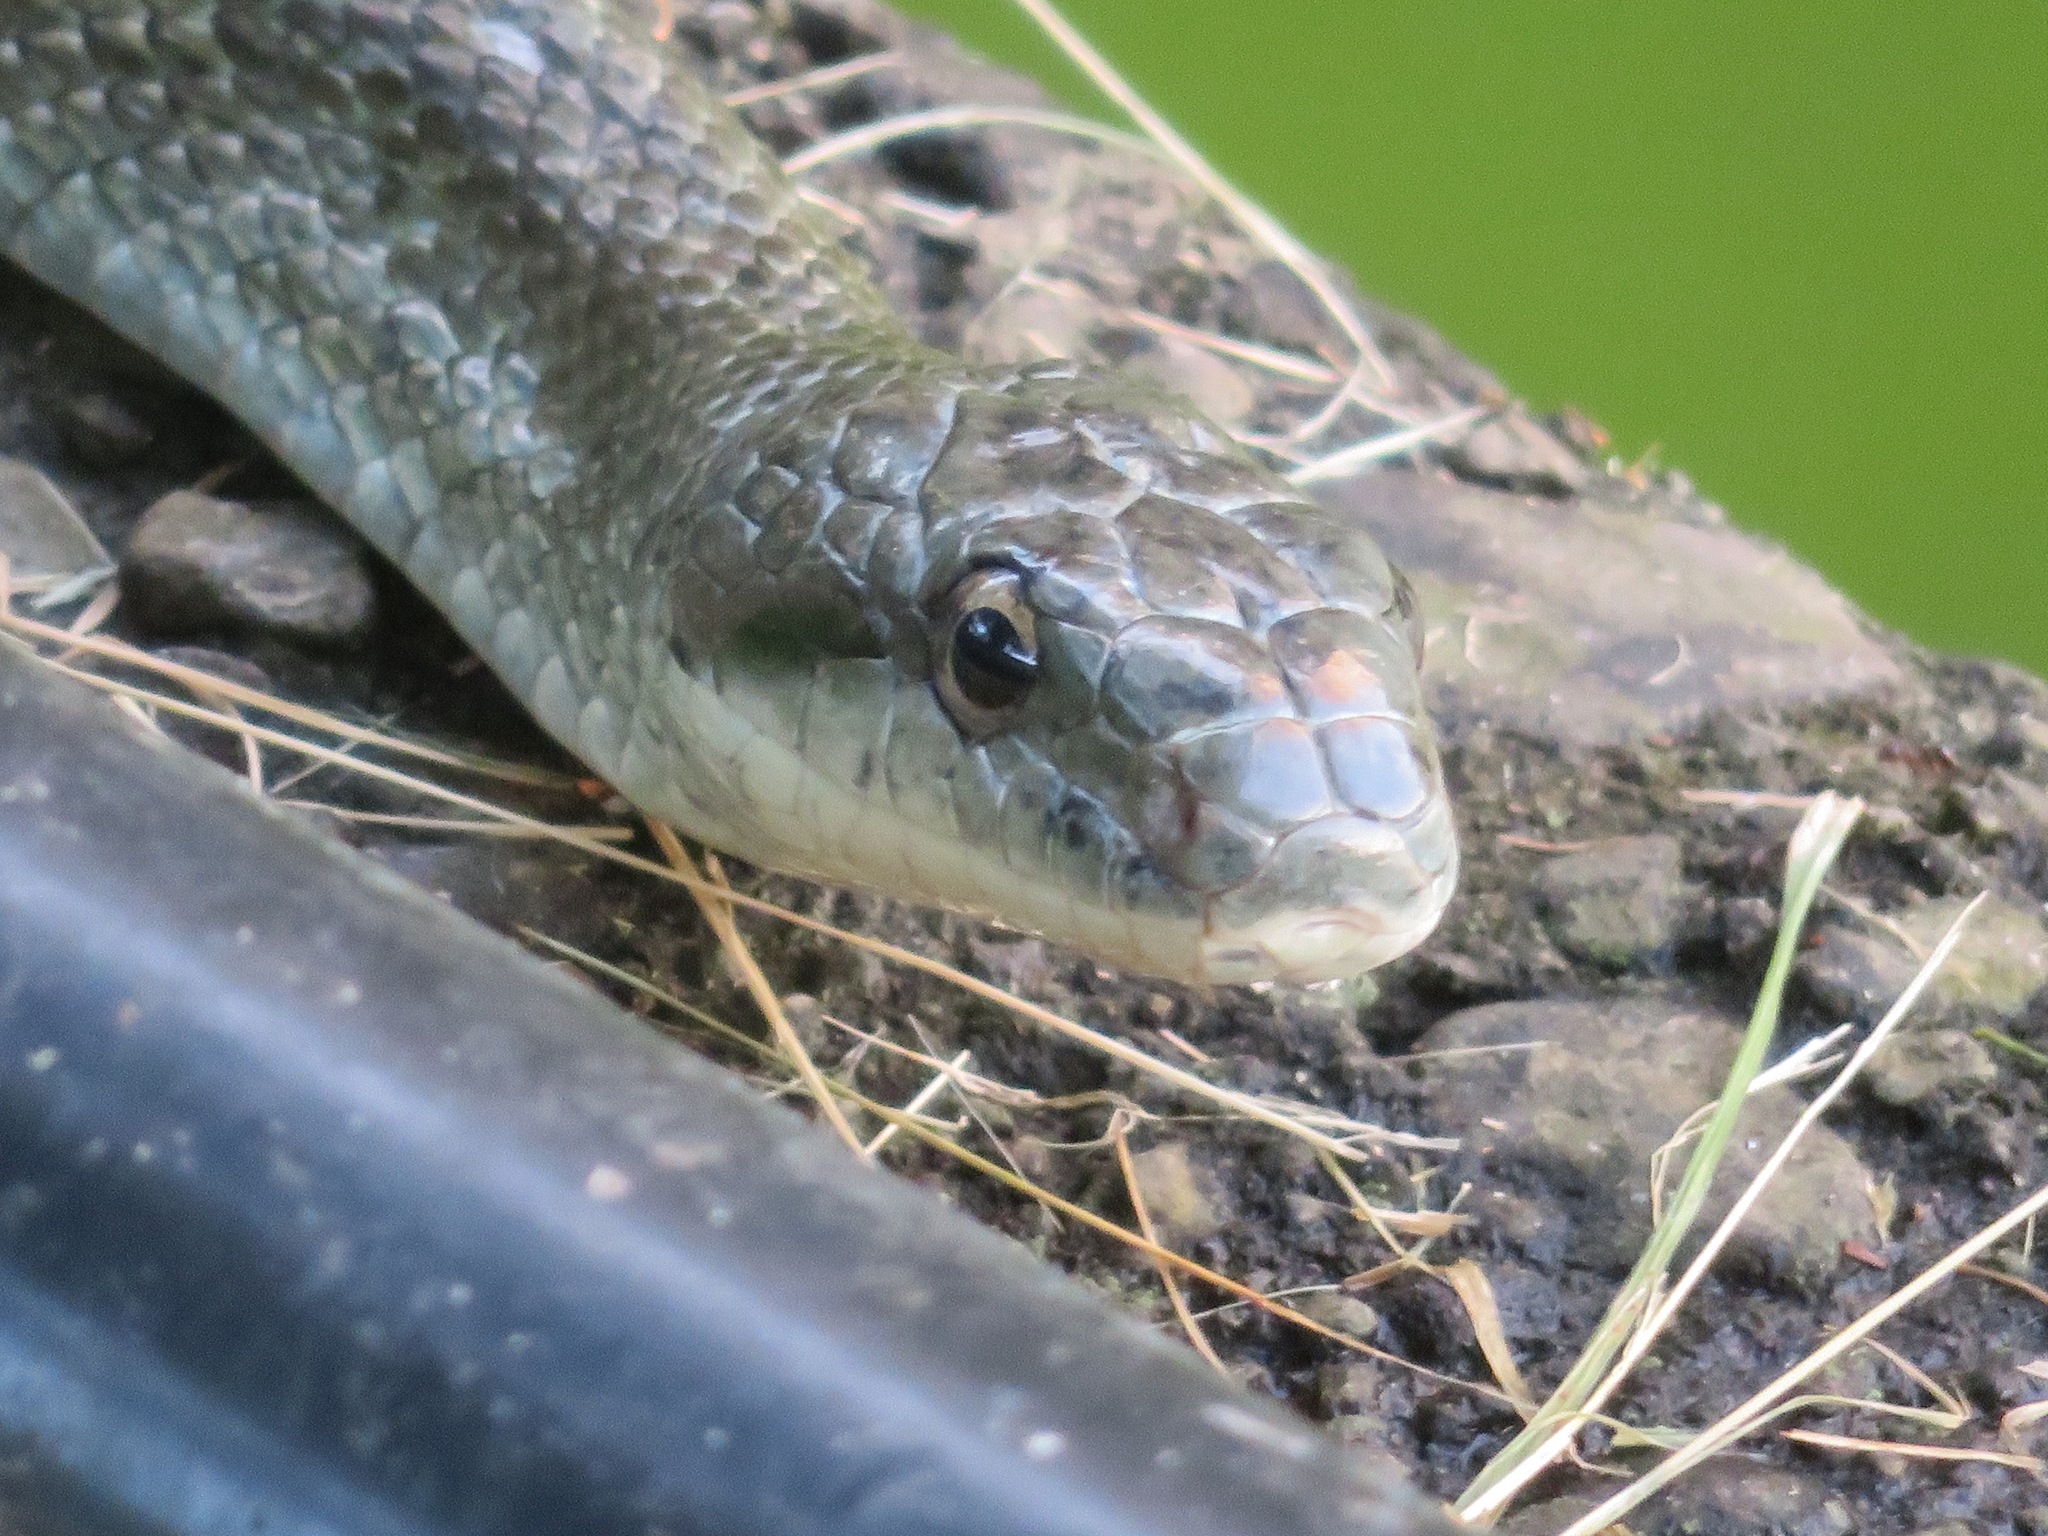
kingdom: Animalia
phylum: Chordata
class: Squamata
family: Colubridae
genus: Elaphe
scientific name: Elaphe climacophora
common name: Japanese ratsnake
